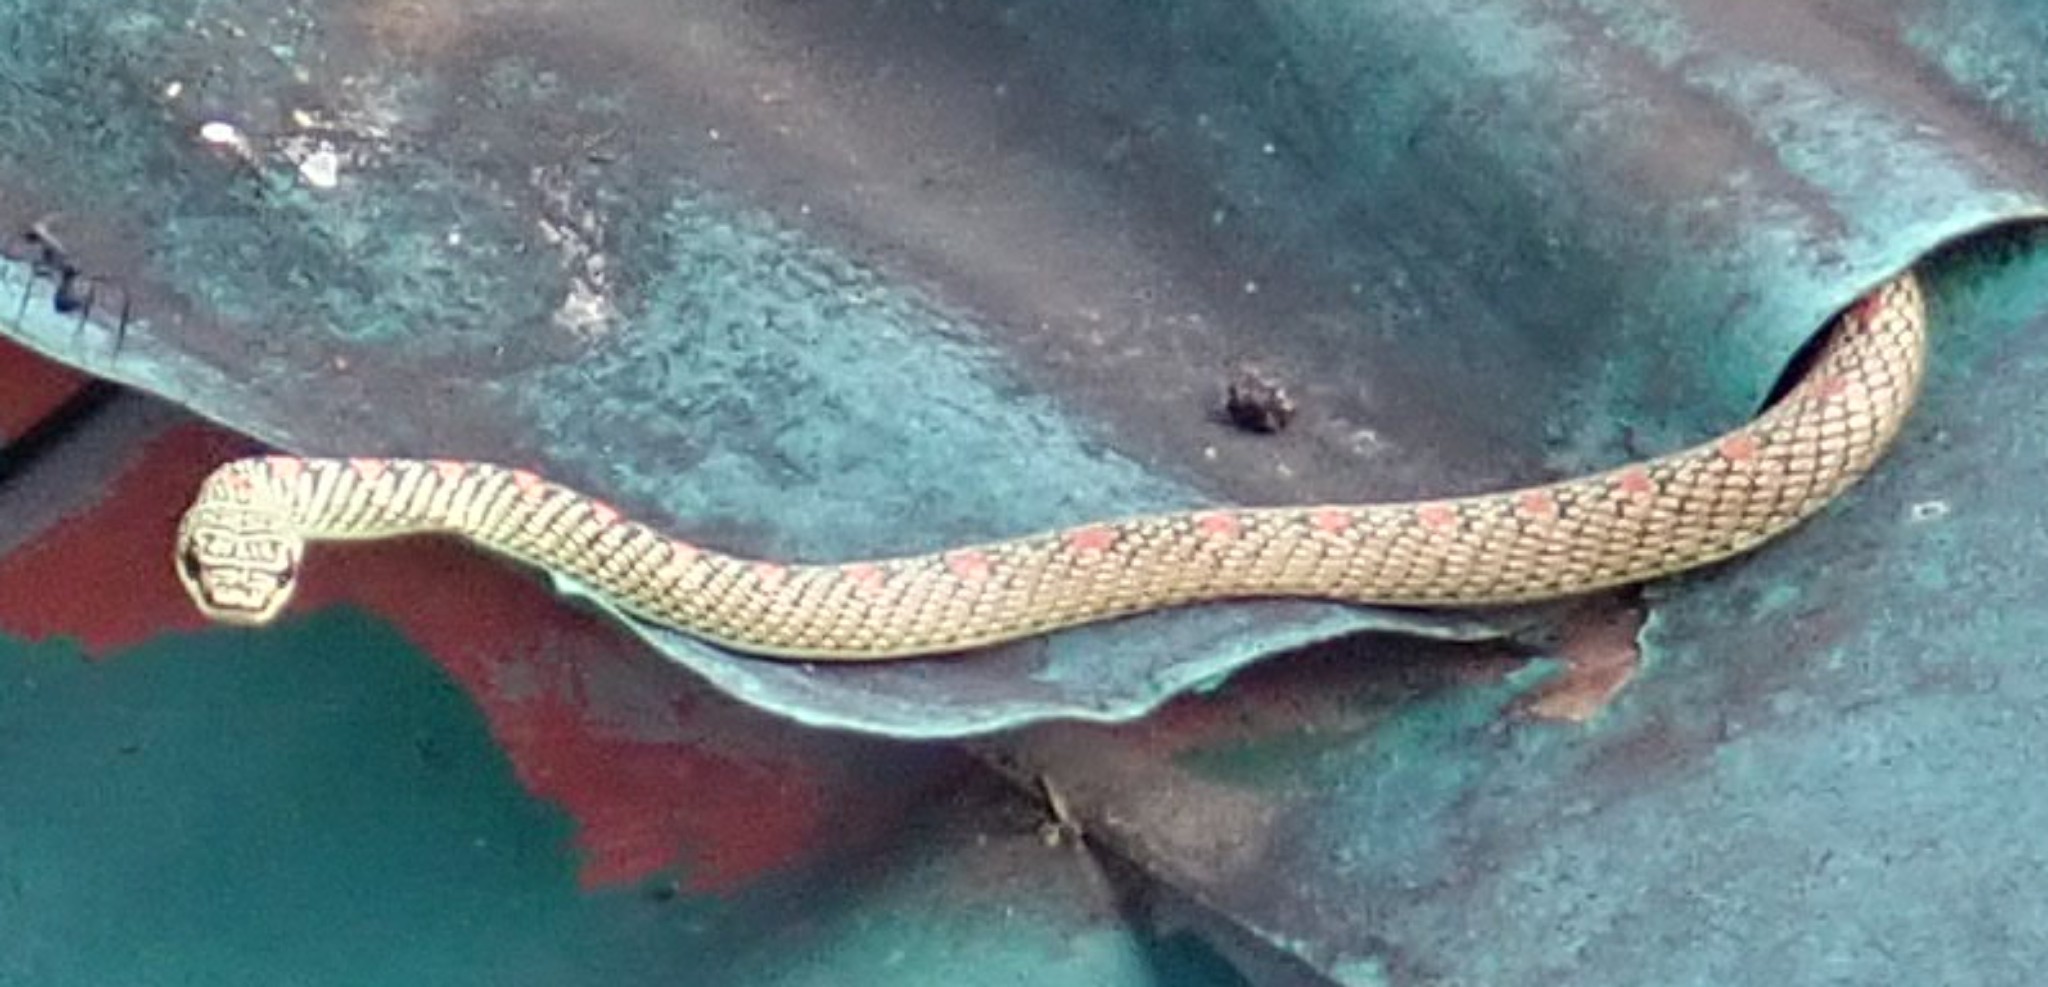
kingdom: Animalia
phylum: Chordata
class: Squamata
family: Colubridae
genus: Chrysopelea
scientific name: Chrysopelea paradisi
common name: Paradise tree snake
